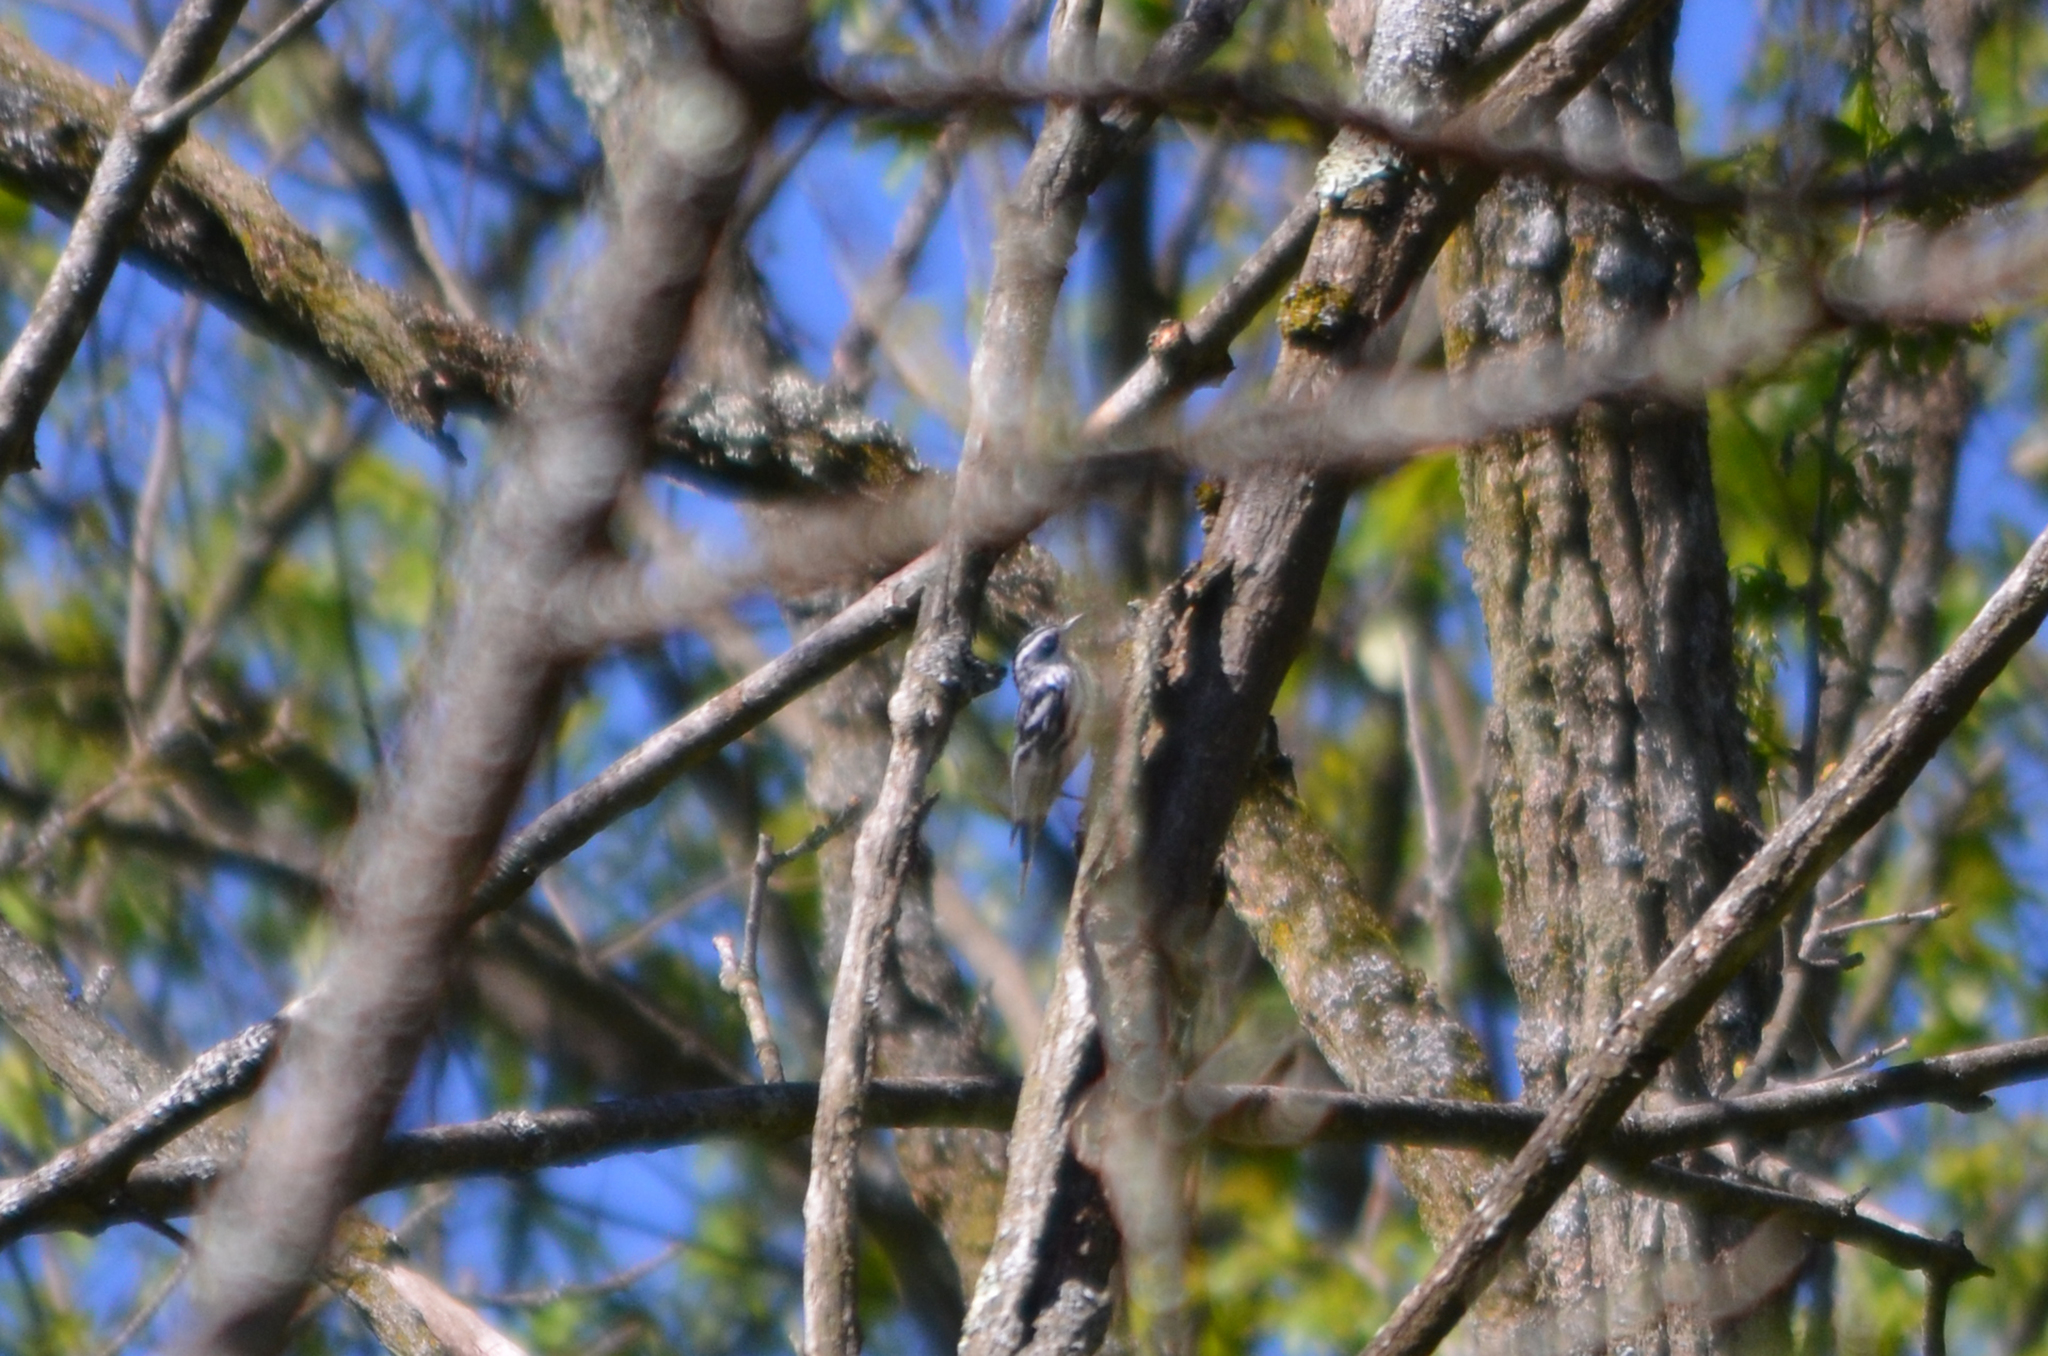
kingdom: Animalia
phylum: Chordata
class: Aves
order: Passeriformes
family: Parulidae
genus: Mniotilta
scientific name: Mniotilta varia
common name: Black-and-white warbler
